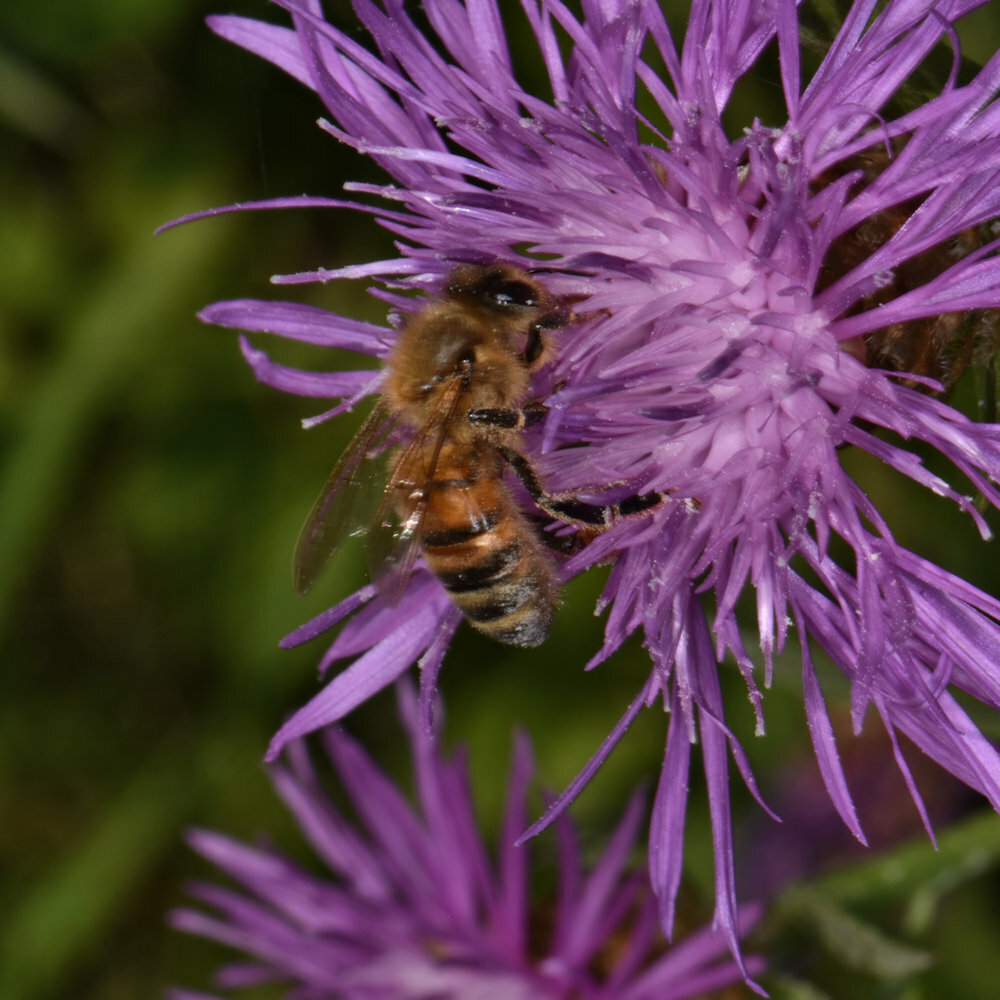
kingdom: Animalia
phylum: Arthropoda
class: Insecta
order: Hymenoptera
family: Apidae
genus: Apis
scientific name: Apis mellifera
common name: Honey bee
